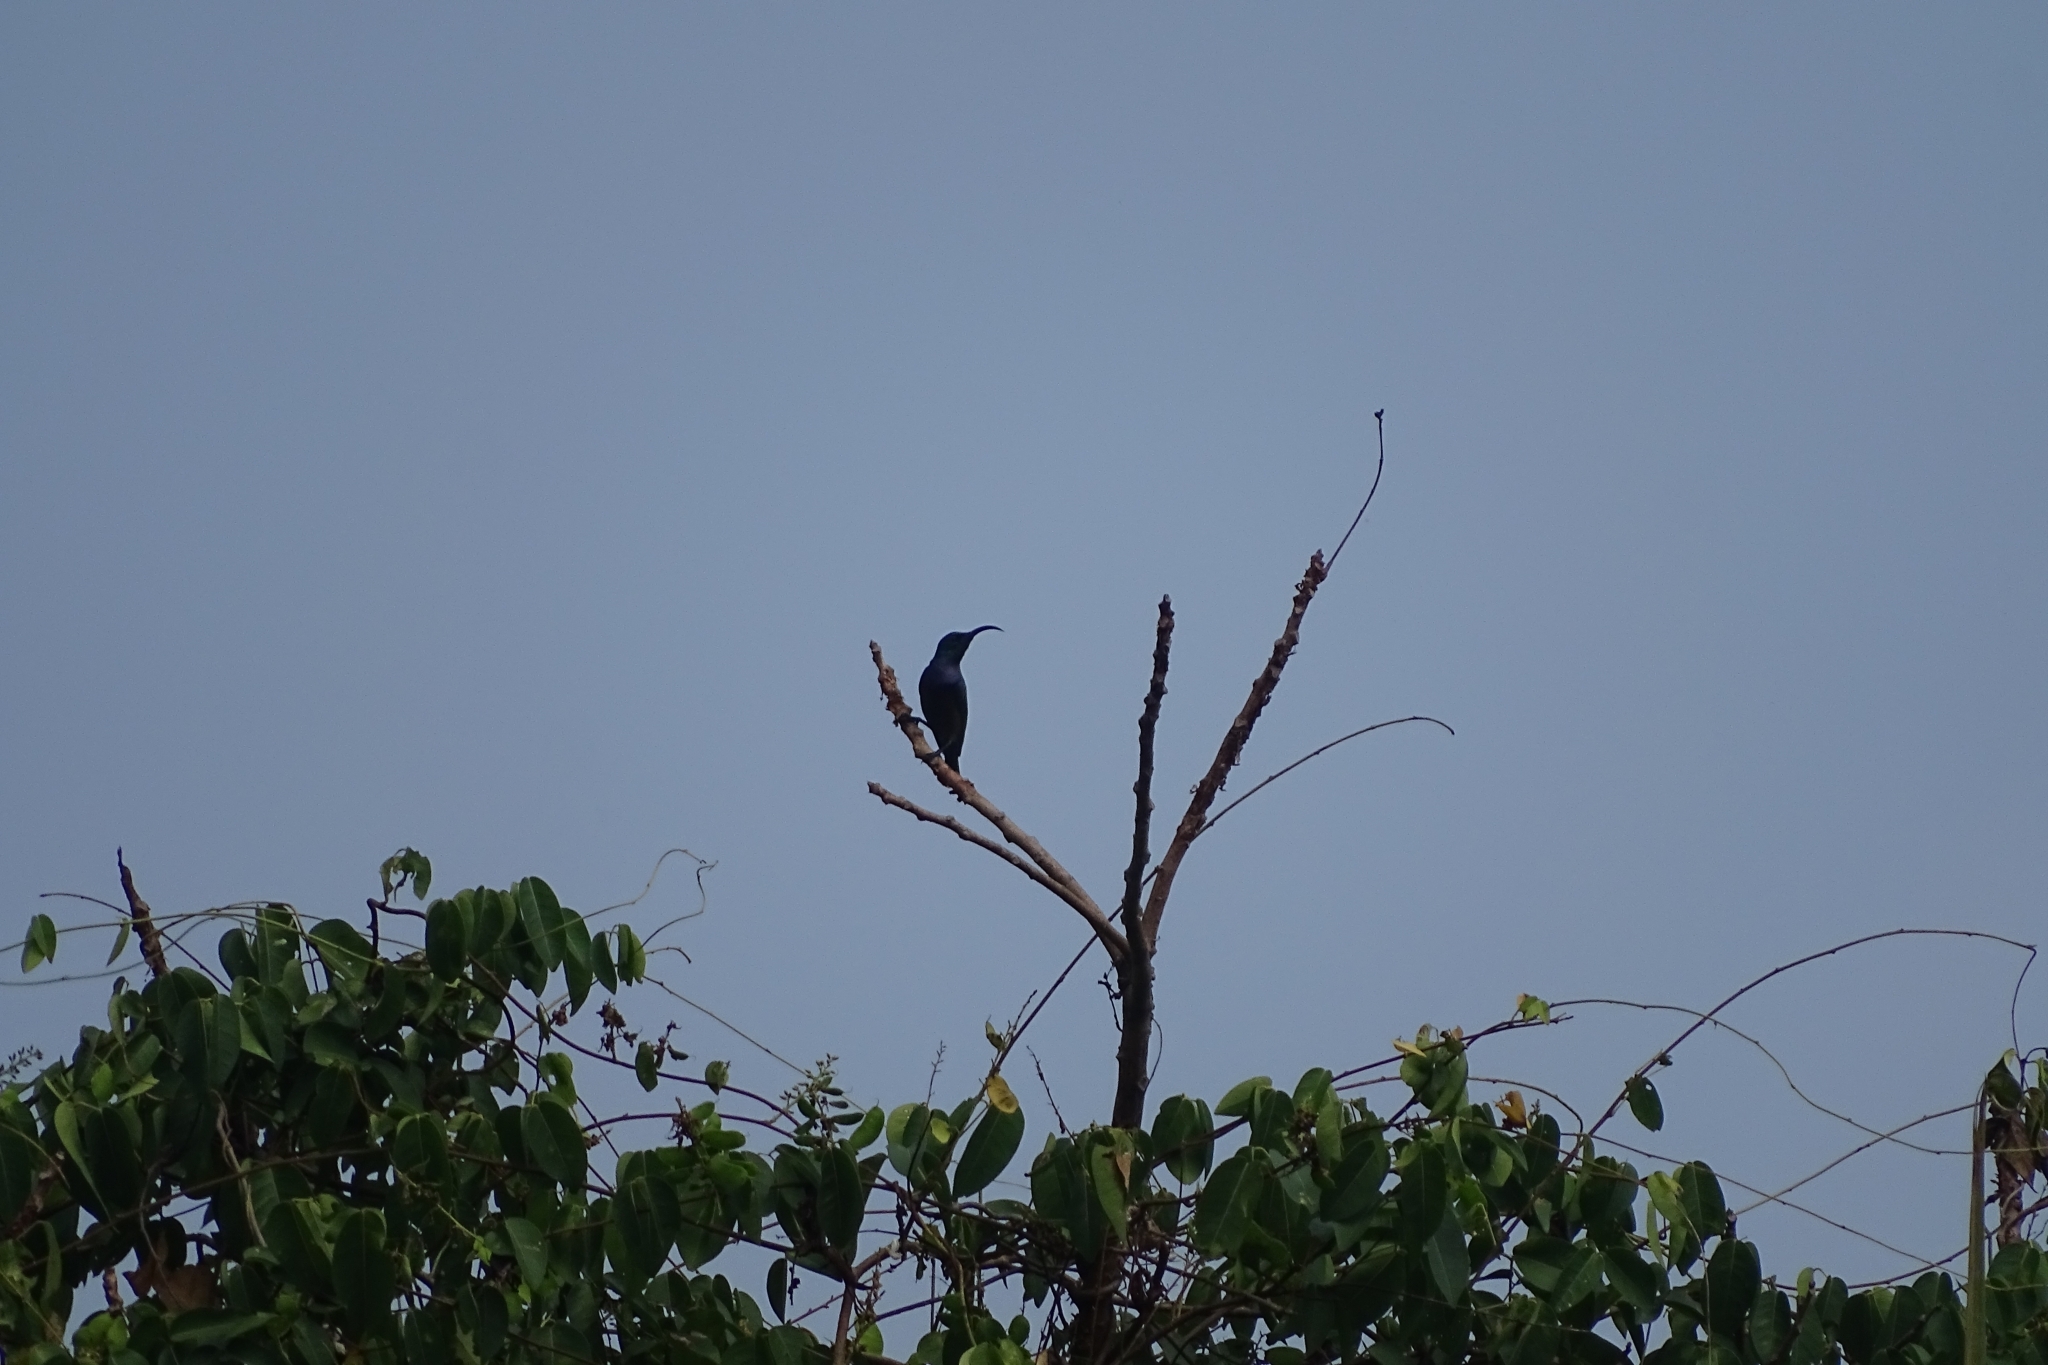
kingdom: Animalia
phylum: Chordata
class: Aves
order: Passeriformes
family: Nectariniidae
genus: Cinnyris
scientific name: Cinnyris lotenius
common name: Loten's sunbird
